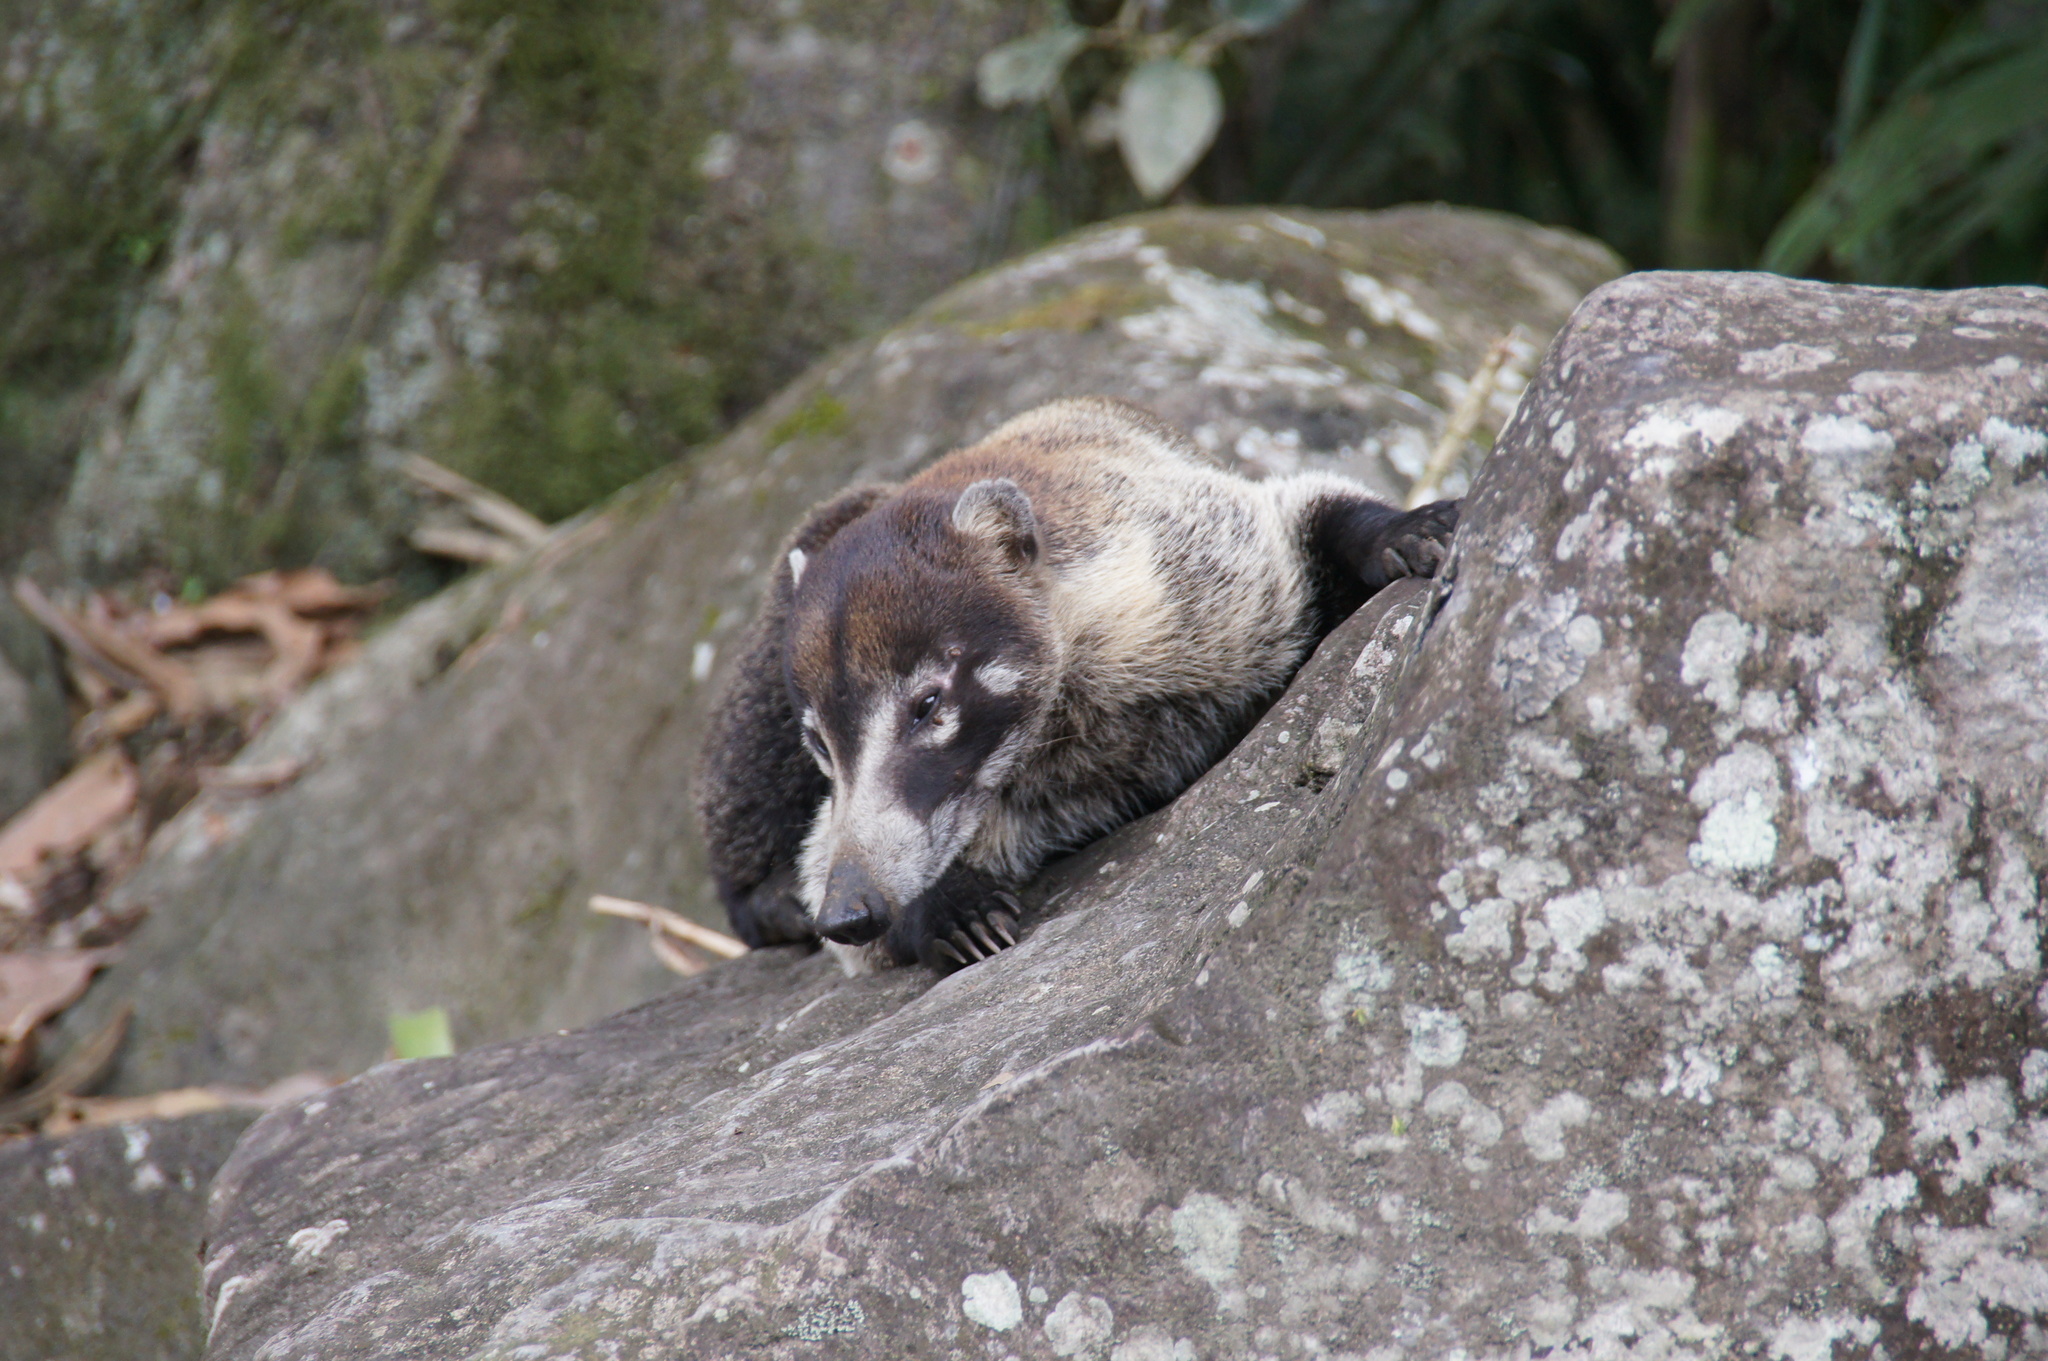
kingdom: Animalia
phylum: Chordata
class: Mammalia
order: Carnivora
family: Procyonidae
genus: Nasua
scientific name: Nasua narica
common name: White-nosed coati
